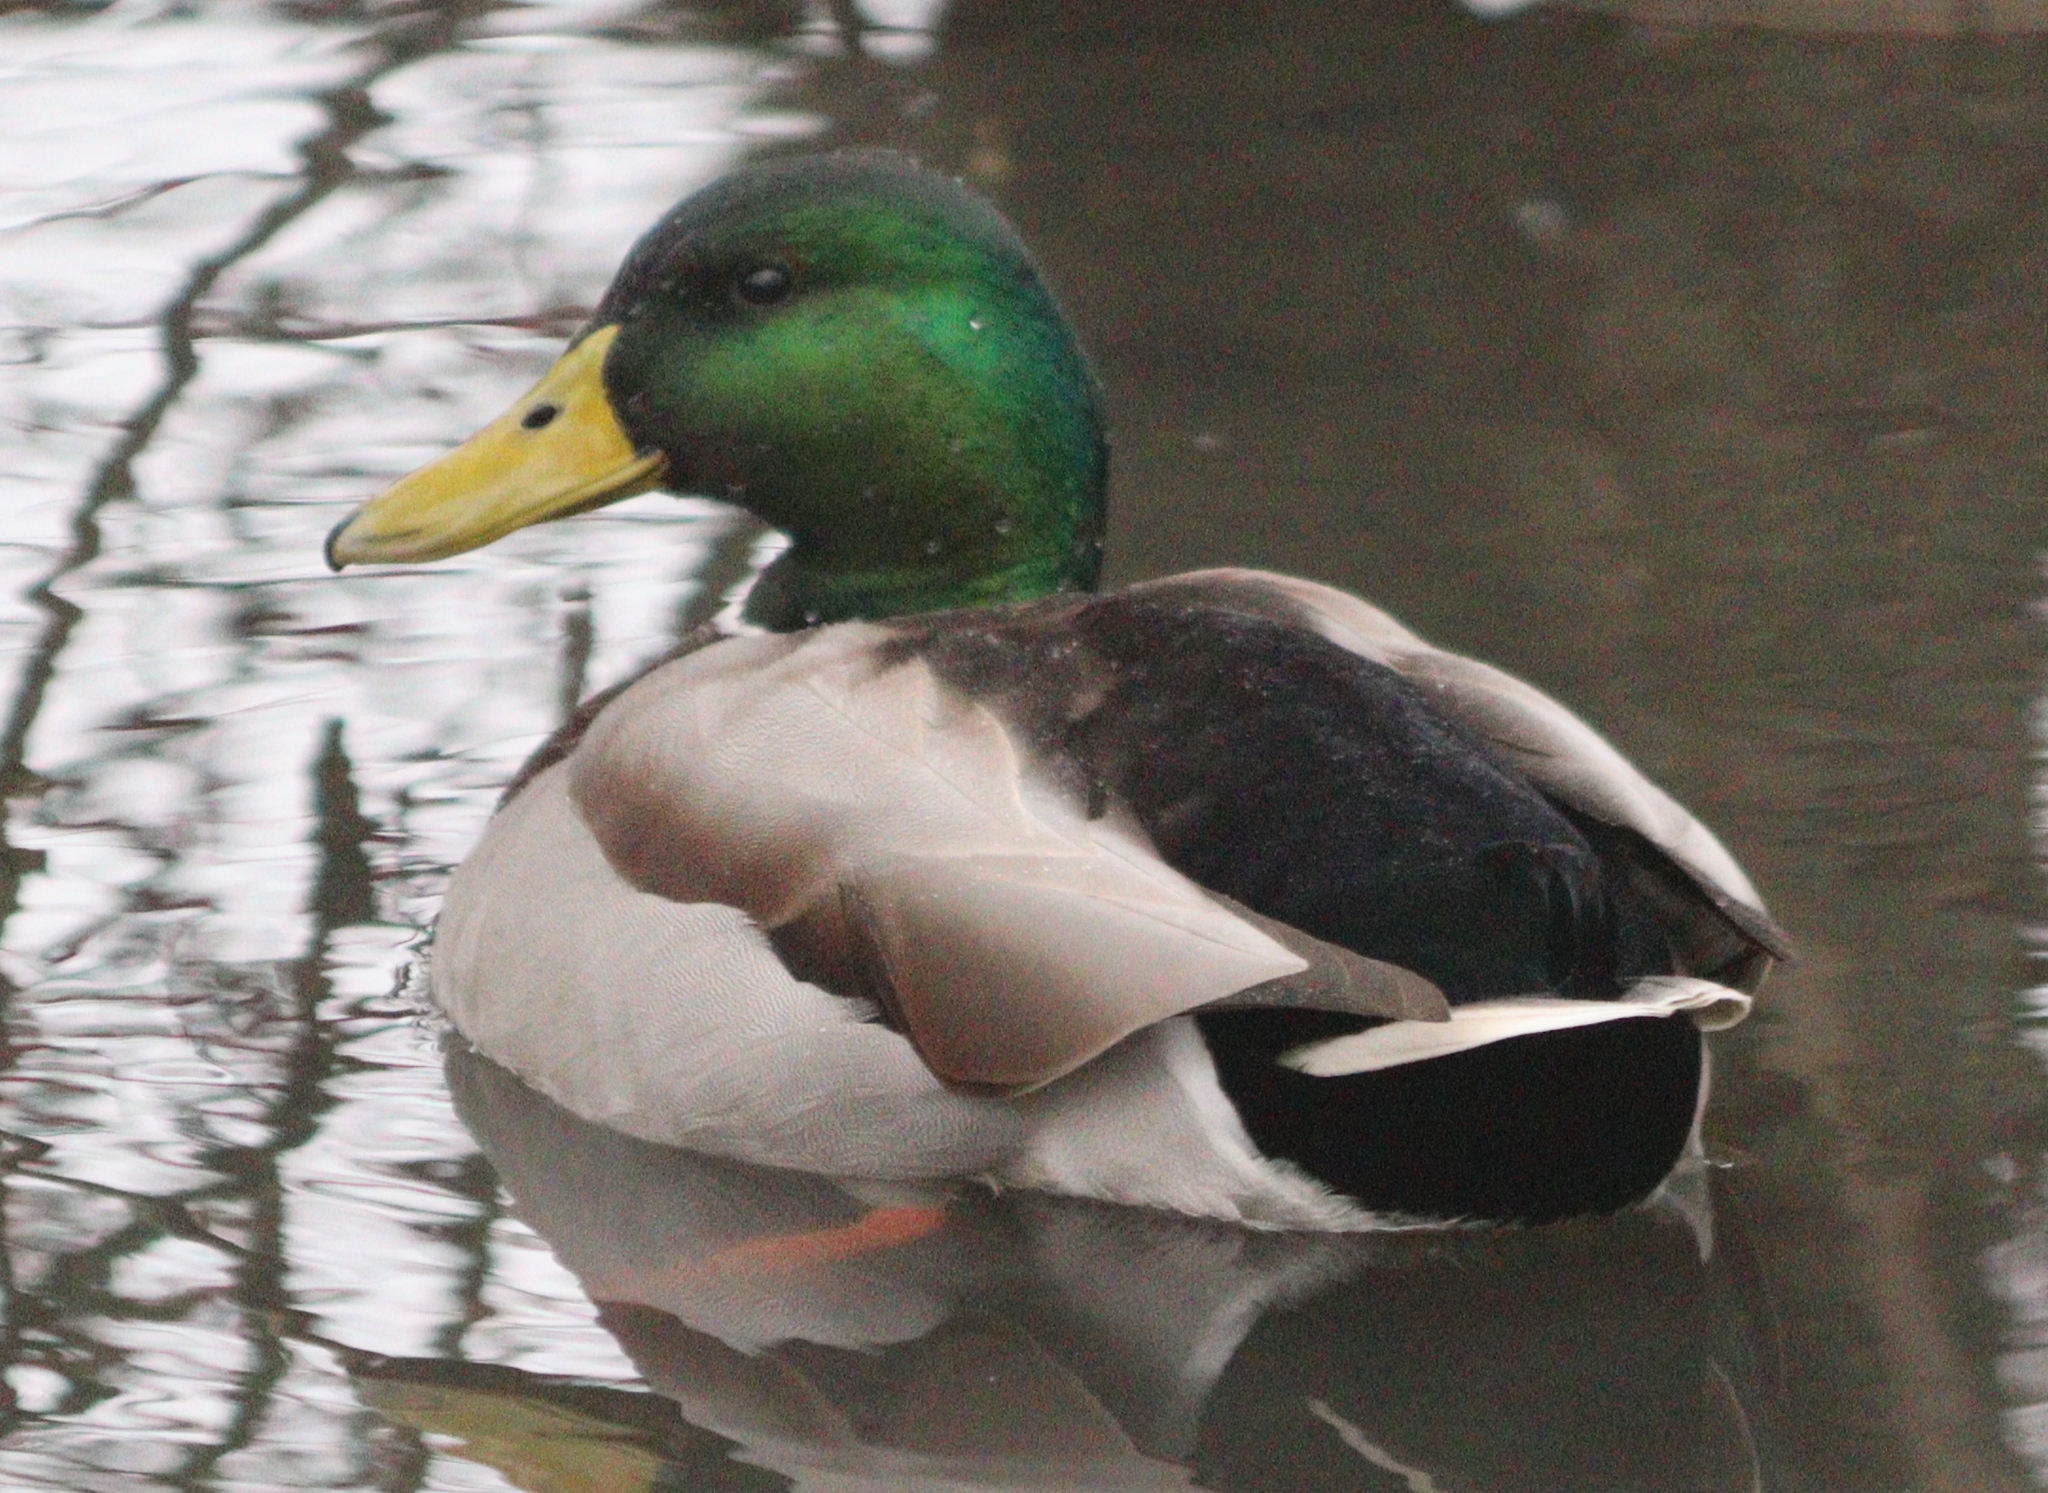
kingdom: Animalia
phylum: Chordata
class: Aves
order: Anseriformes
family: Anatidae
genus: Anas
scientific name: Anas platyrhynchos
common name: Mallard
